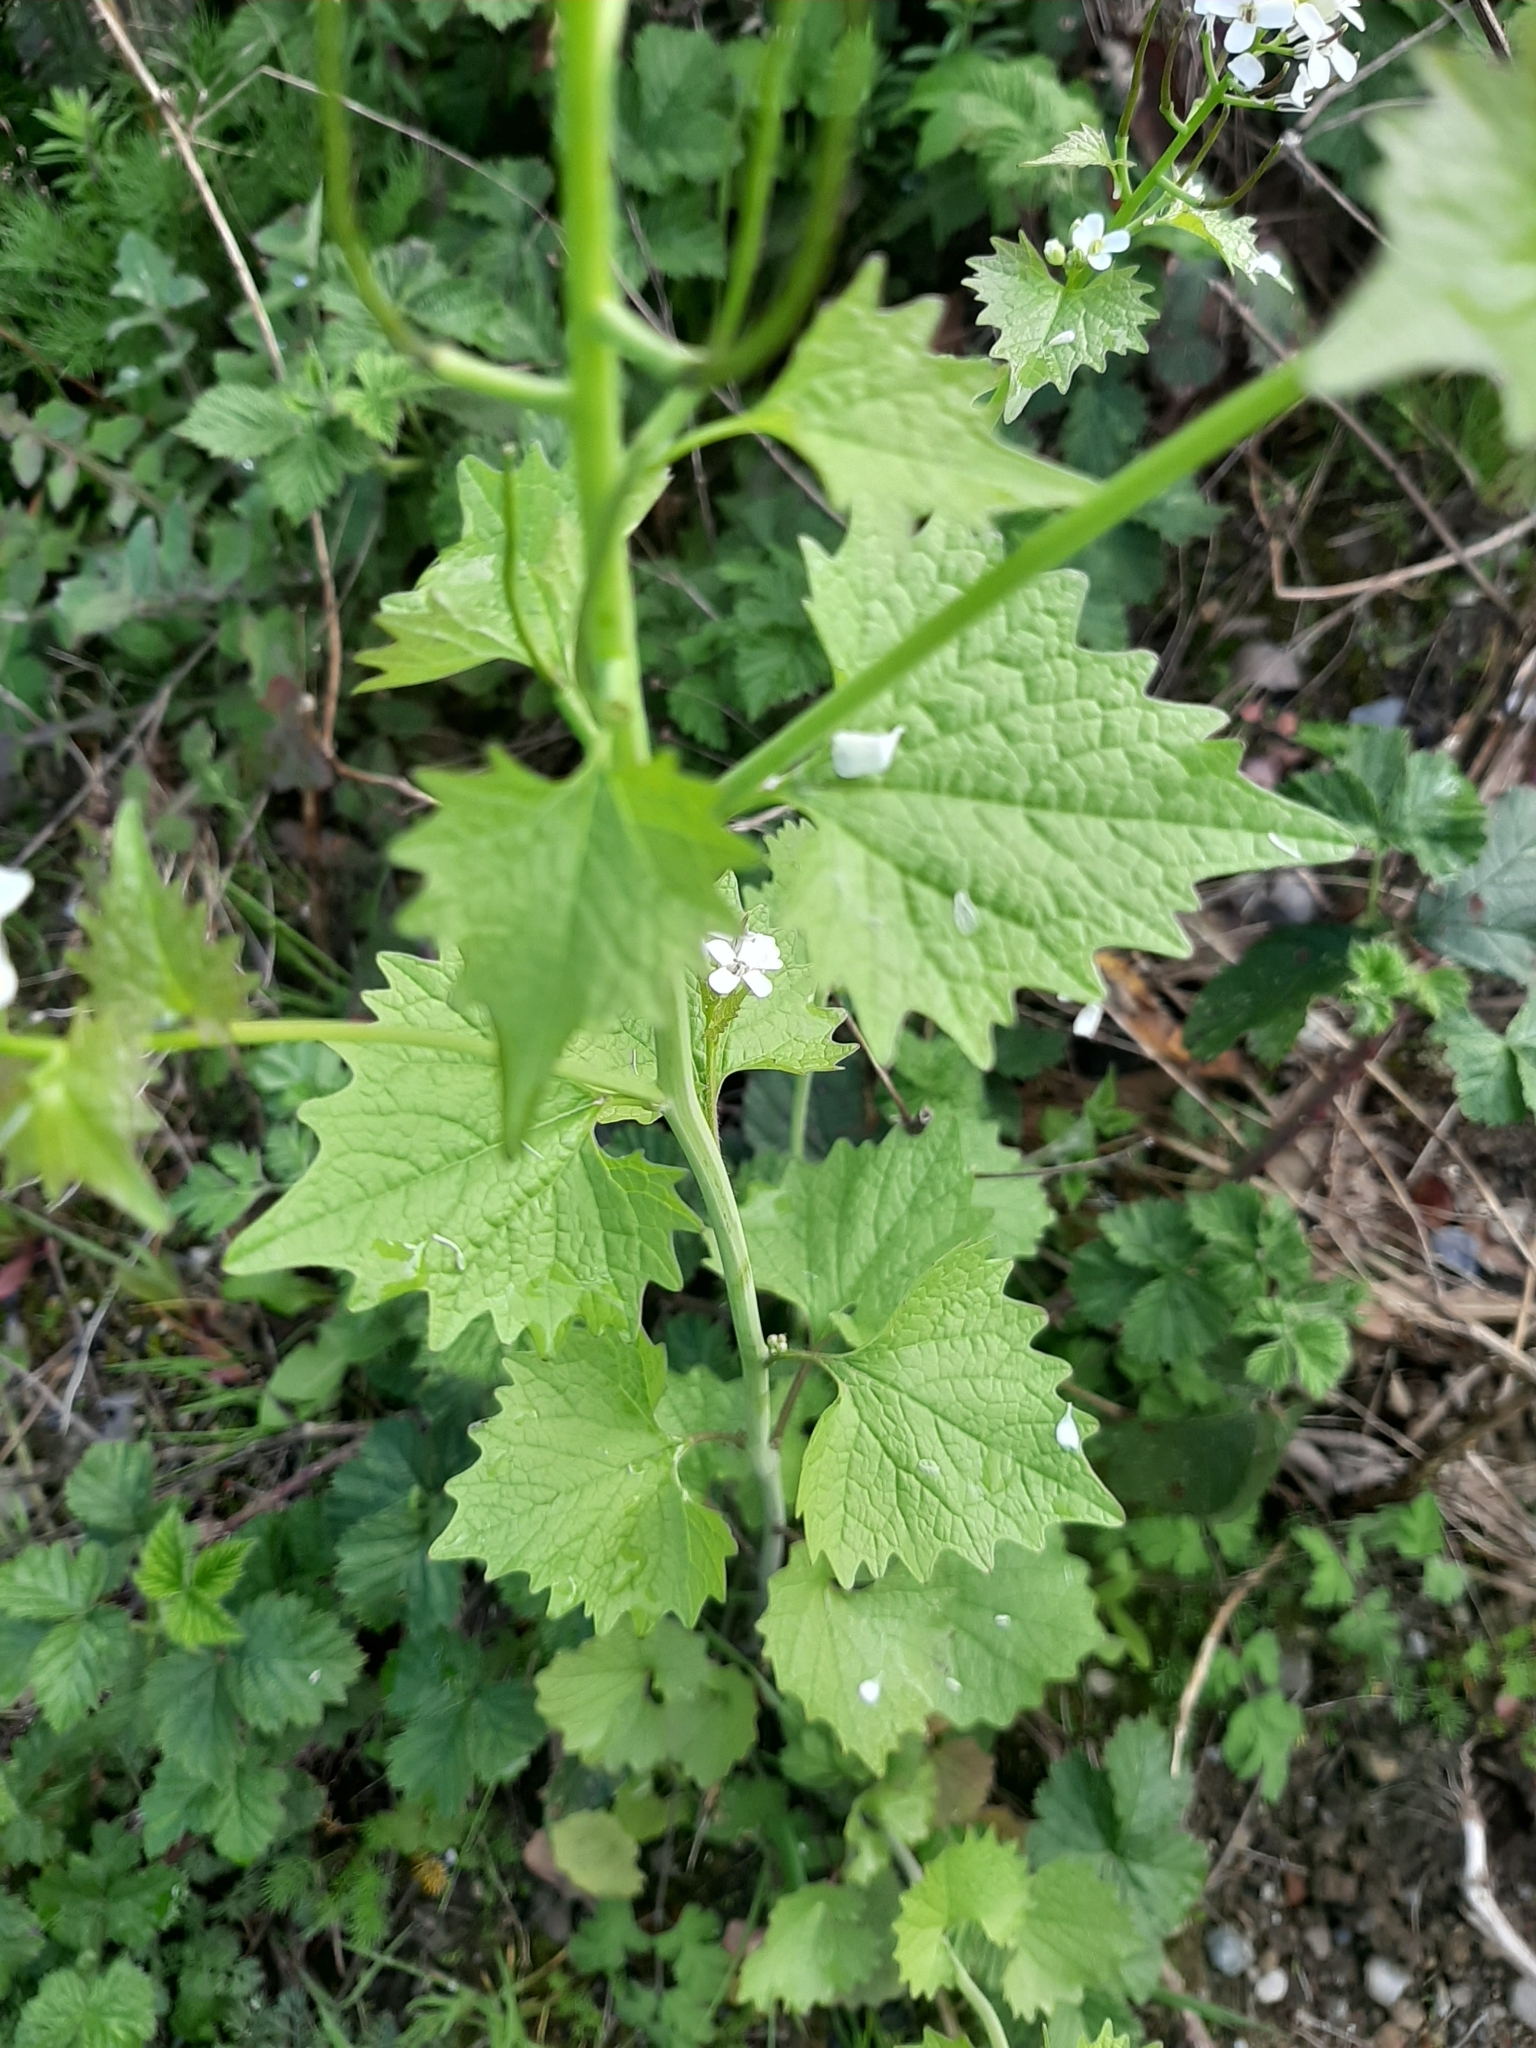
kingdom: Plantae
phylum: Tracheophyta
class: Magnoliopsida
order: Brassicales
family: Brassicaceae
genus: Alliaria
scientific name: Alliaria petiolata
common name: Garlic mustard
